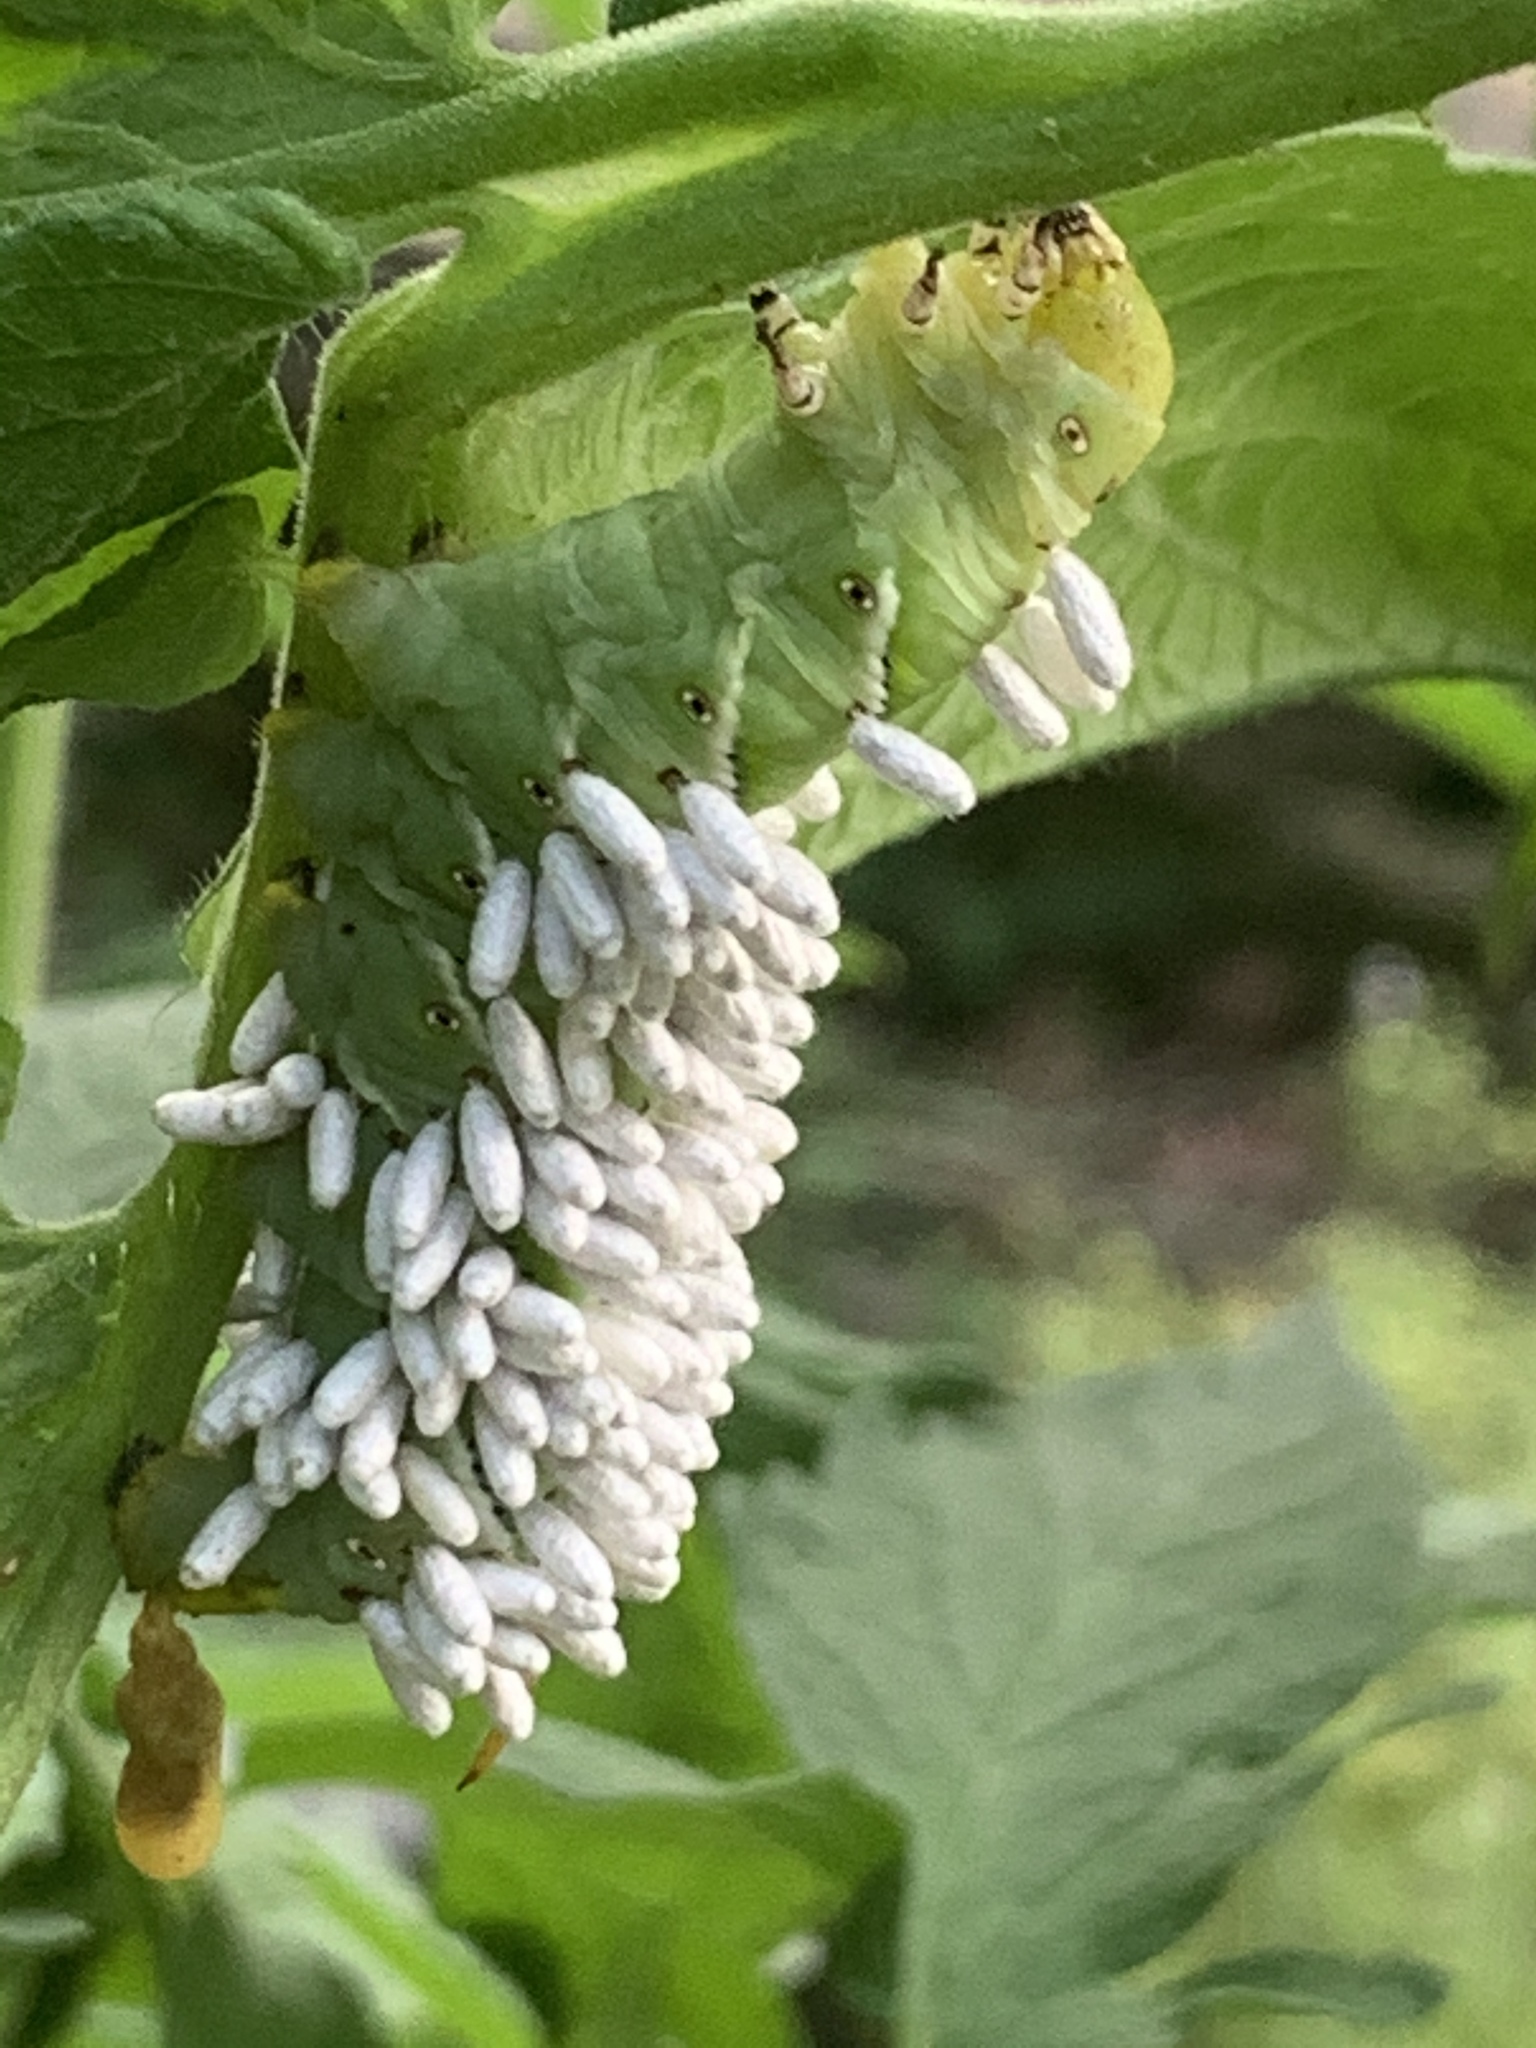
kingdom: Animalia
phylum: Arthropoda
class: Insecta
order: Hymenoptera
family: Braconidae
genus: Cotesia
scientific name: Cotesia congregata
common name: Hornworm parasitoid wasp
